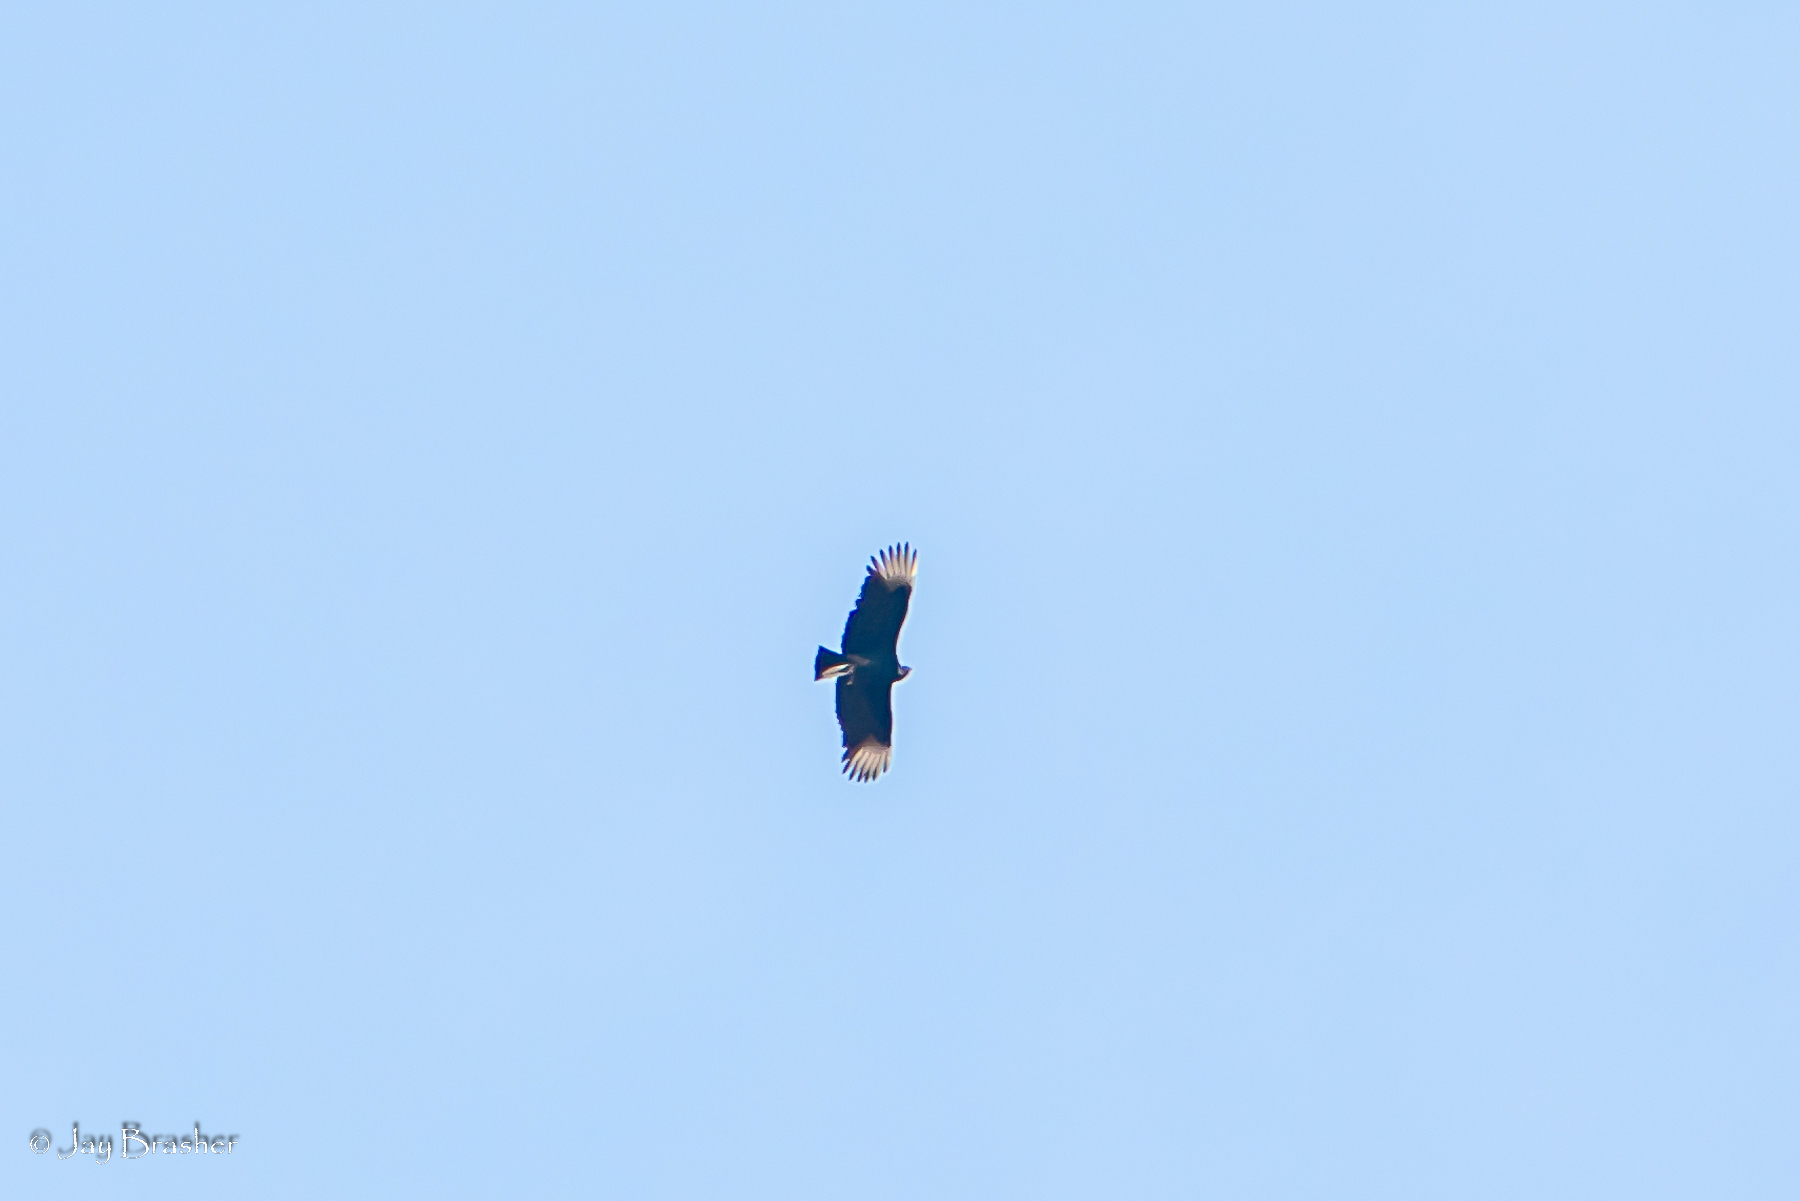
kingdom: Animalia
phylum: Chordata
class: Aves
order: Accipitriformes
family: Cathartidae
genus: Coragyps
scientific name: Coragyps atratus
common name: Black vulture
